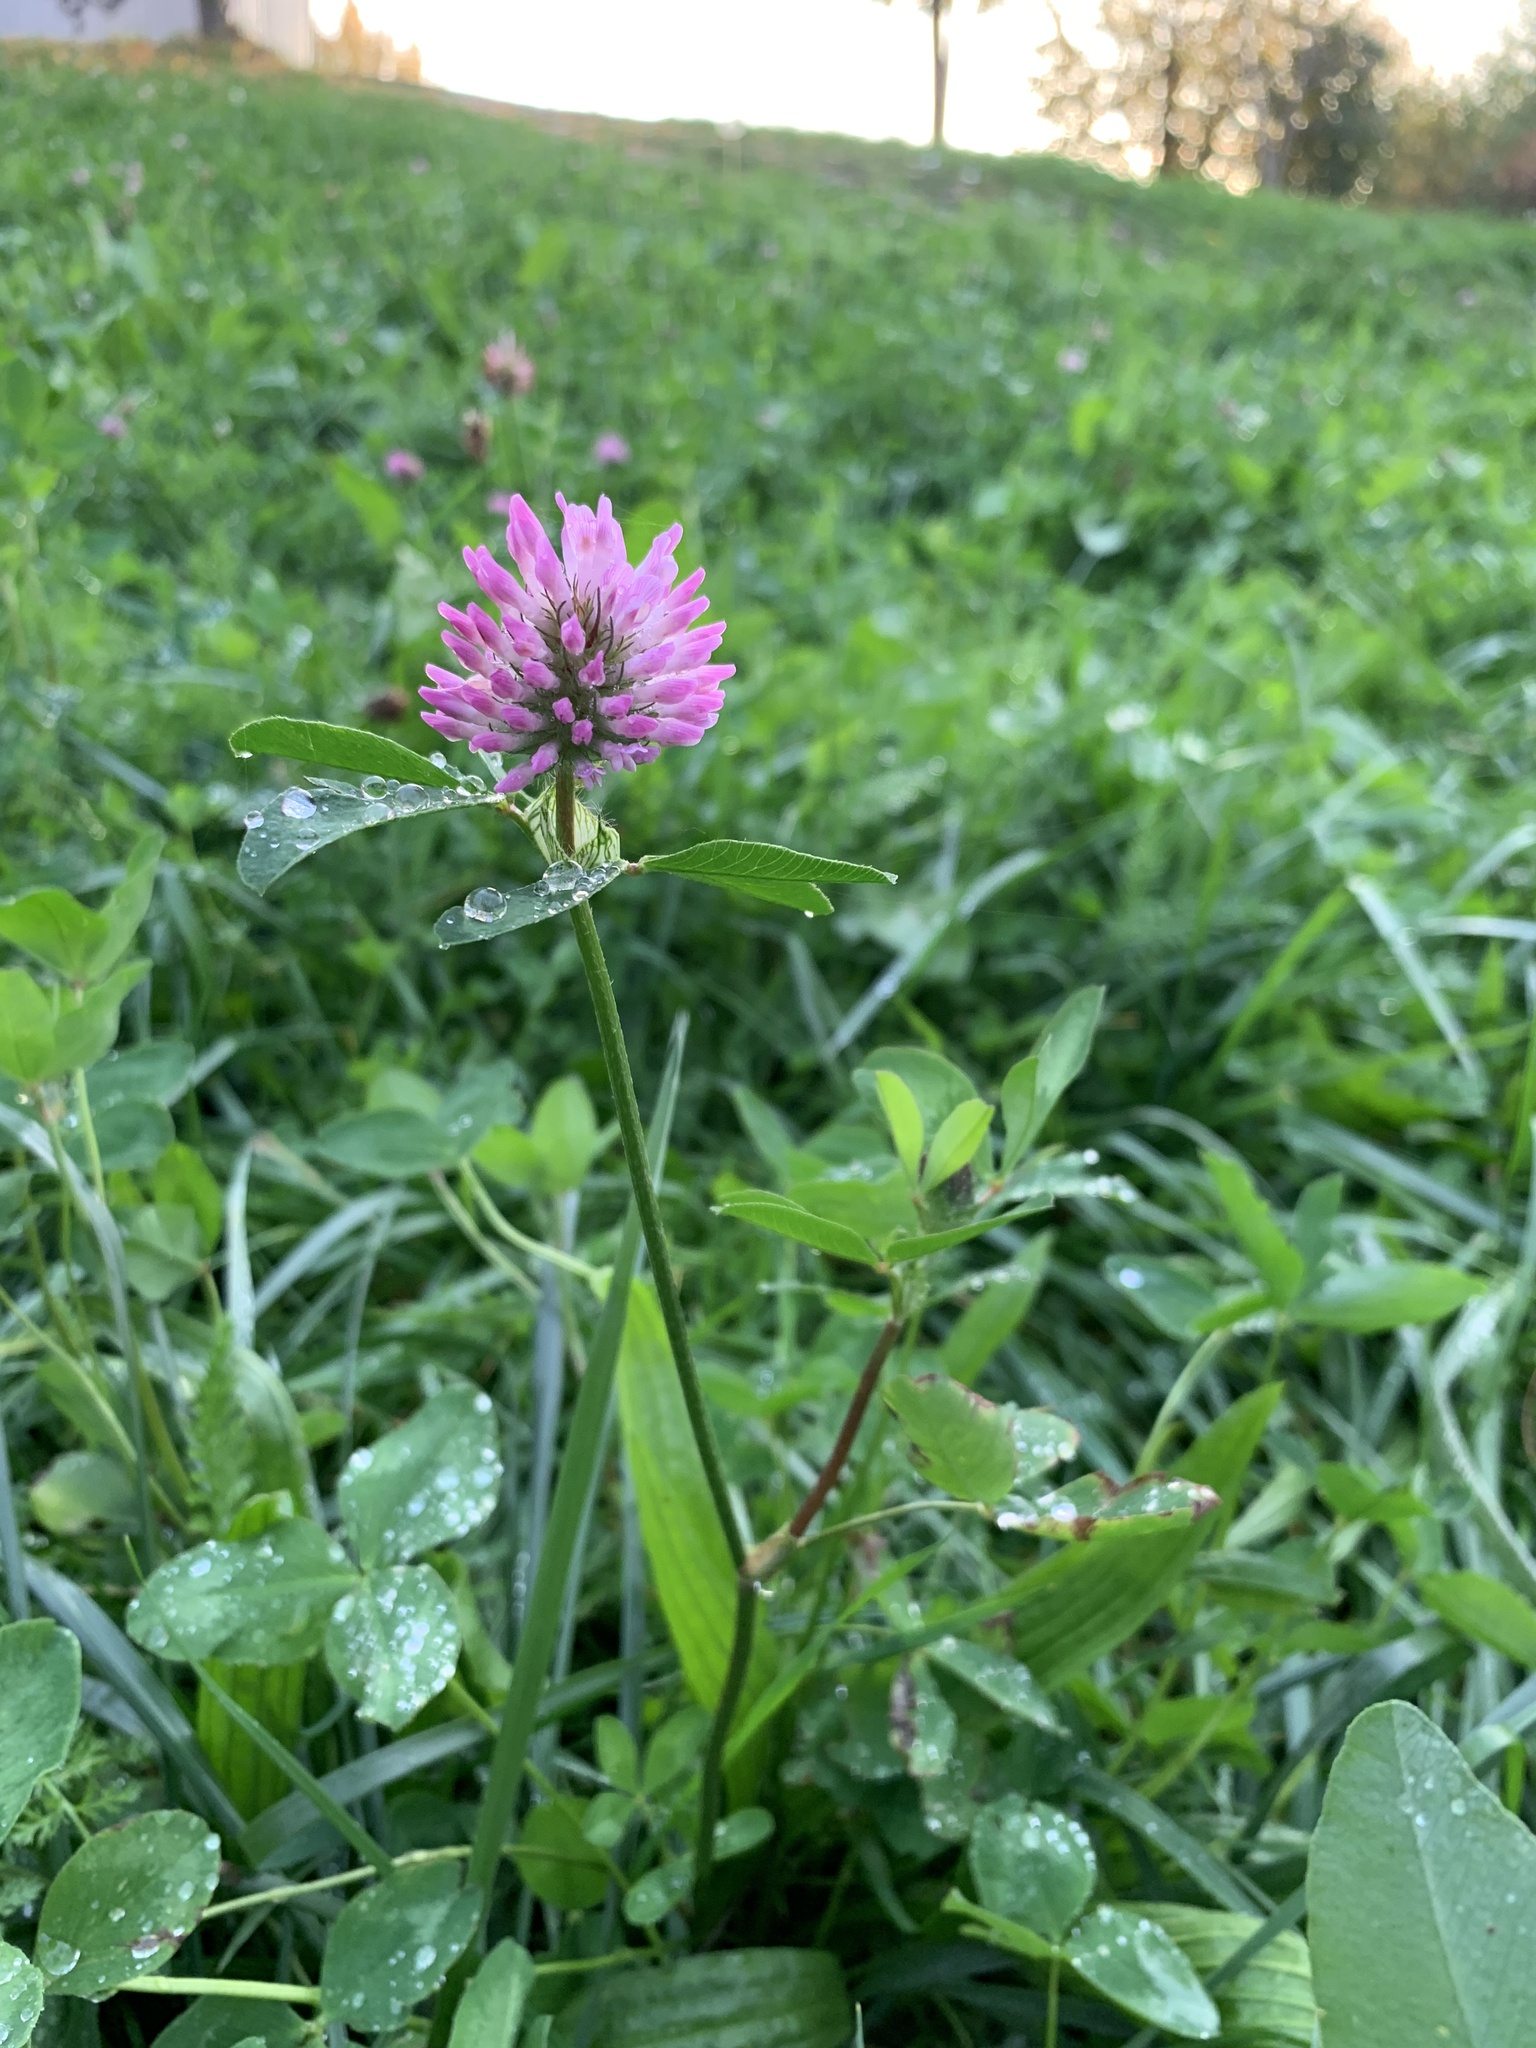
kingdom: Plantae
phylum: Tracheophyta
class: Magnoliopsida
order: Fabales
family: Fabaceae
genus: Trifolium
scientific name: Trifolium pratense
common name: Red clover
